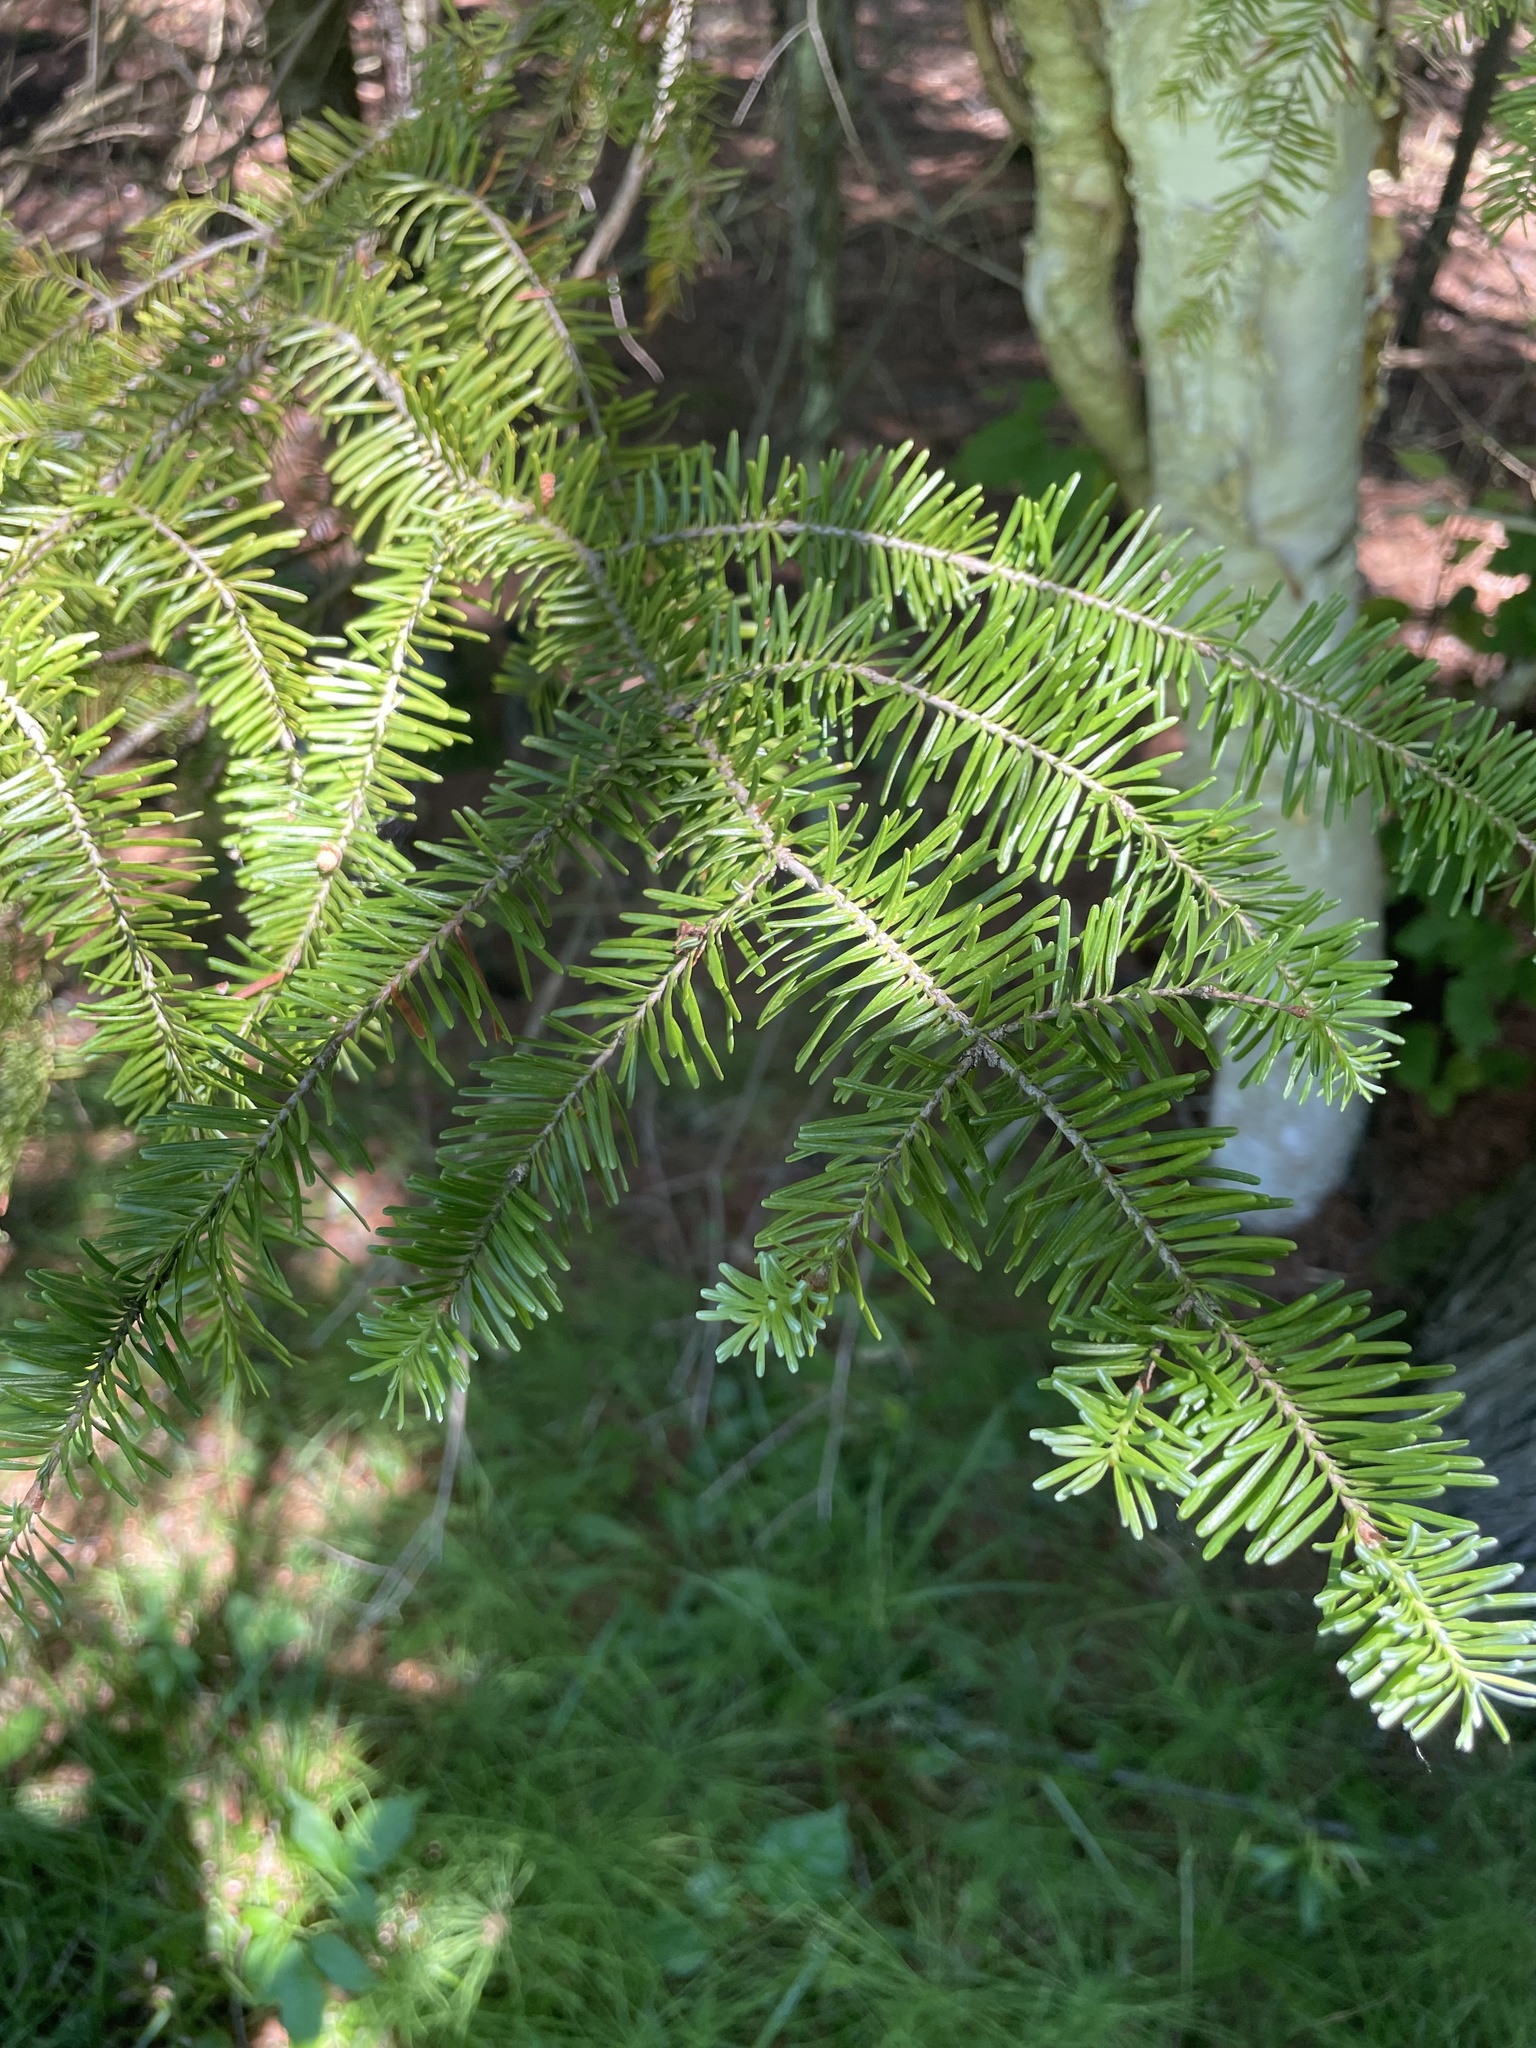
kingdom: Plantae
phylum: Tracheophyta
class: Pinopsida
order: Pinales
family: Pinaceae
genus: Abies
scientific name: Abies balsamea
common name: Balsam fir
